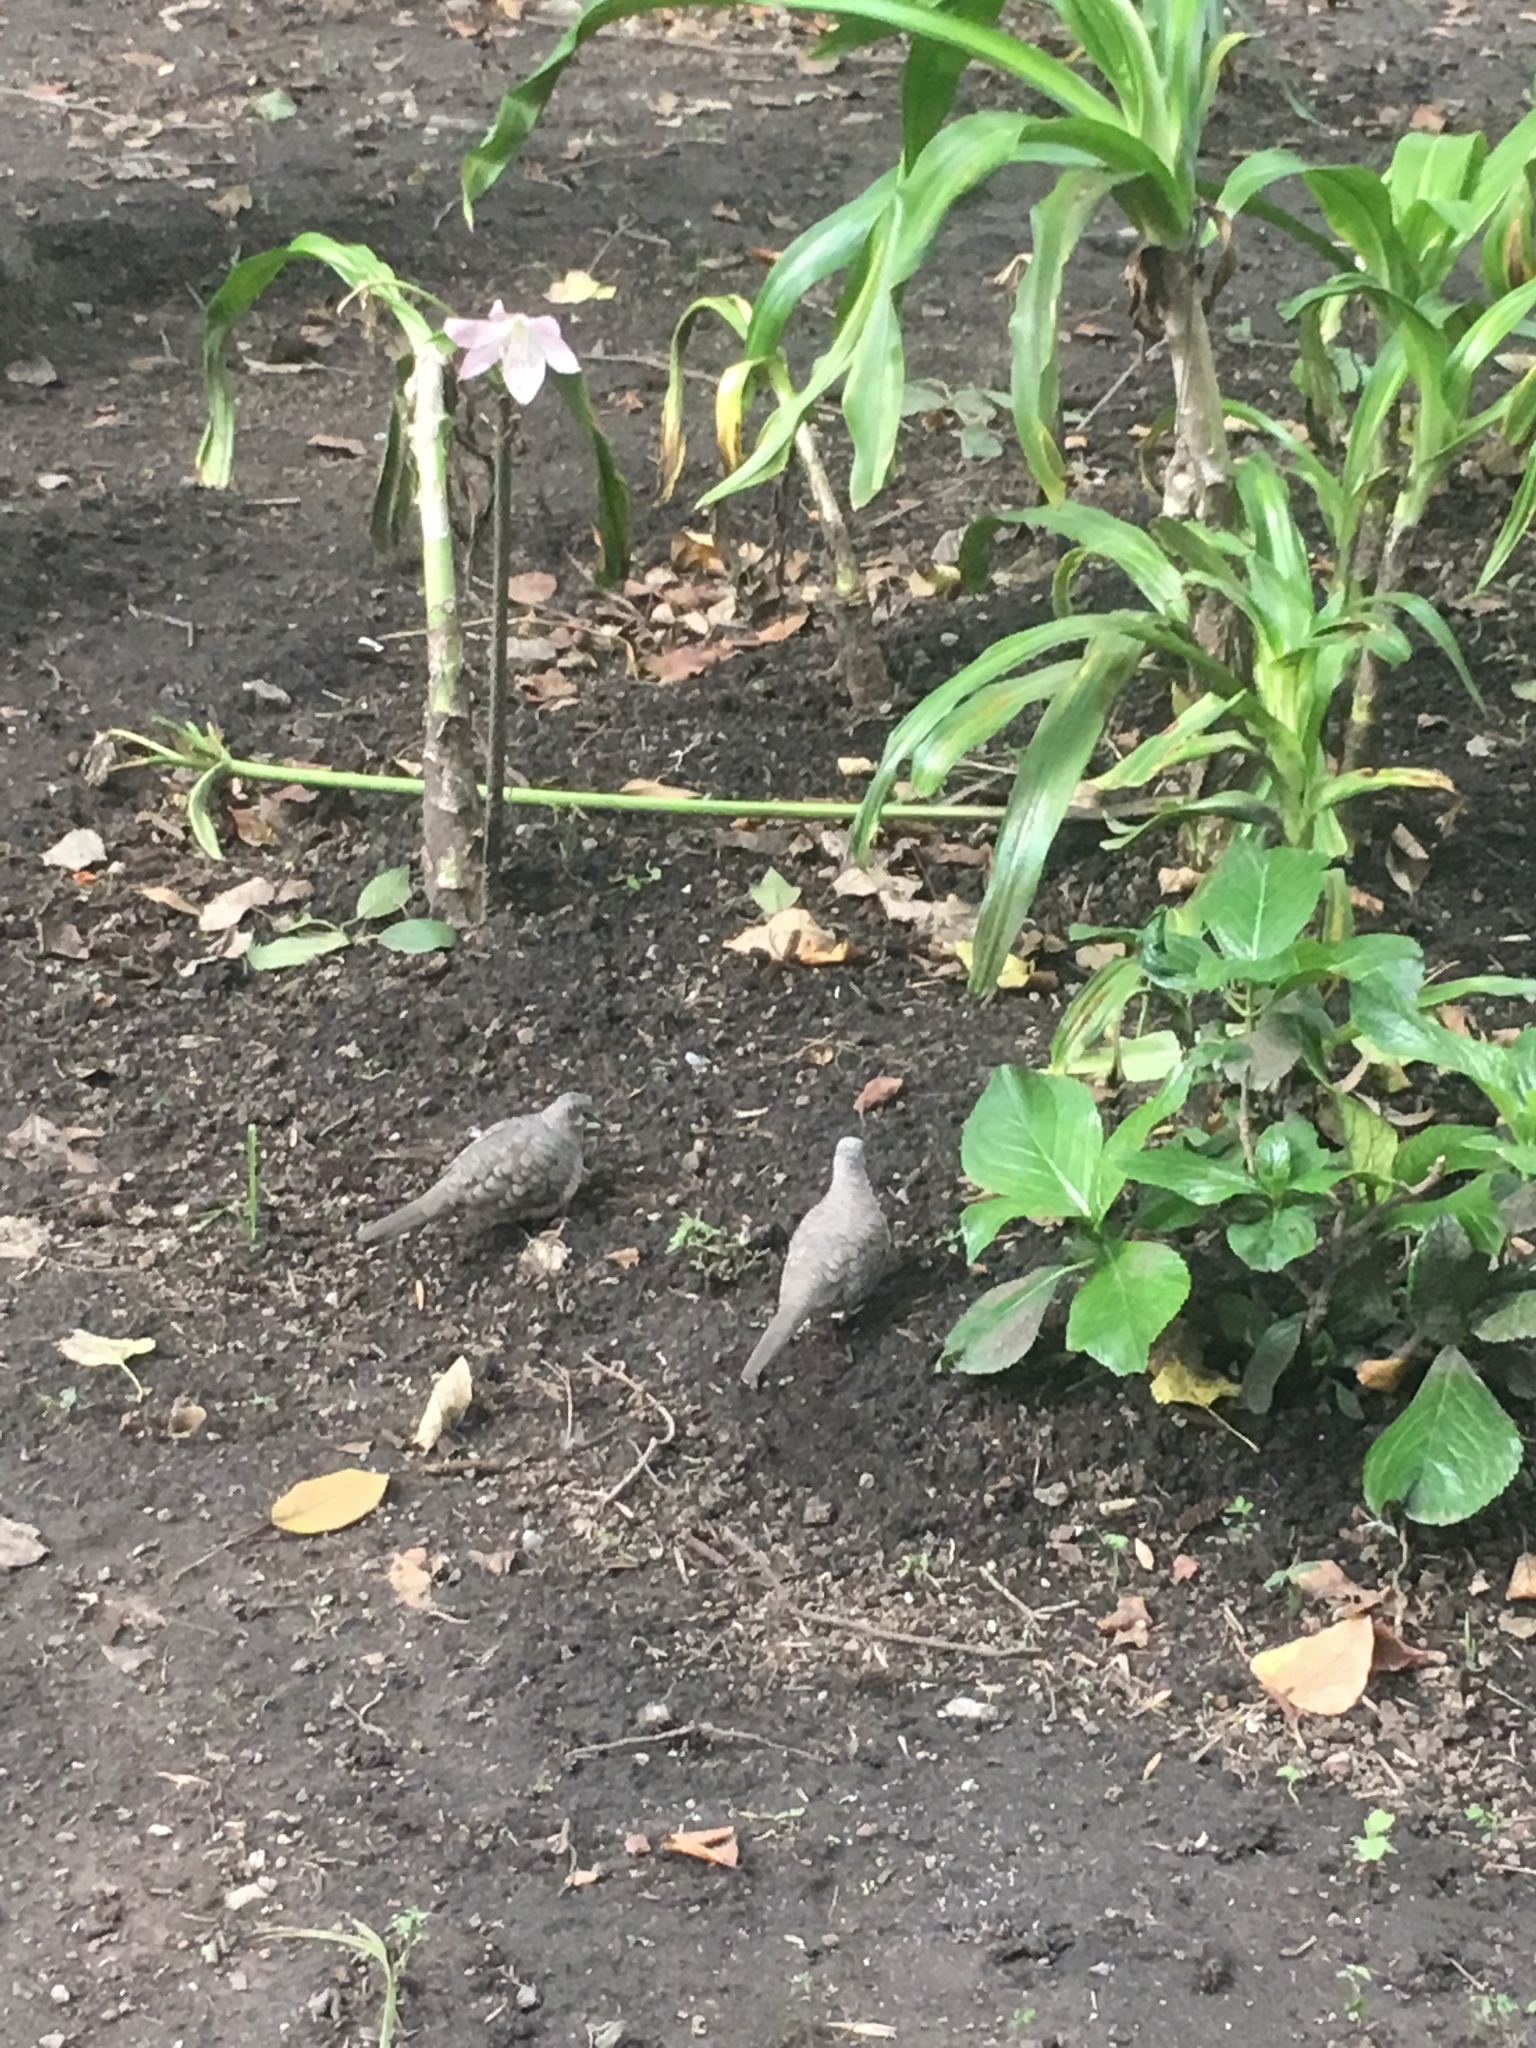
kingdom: Animalia
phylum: Chordata
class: Aves
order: Columbiformes
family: Columbidae
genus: Columbina
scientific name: Columbina inca
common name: Inca dove
